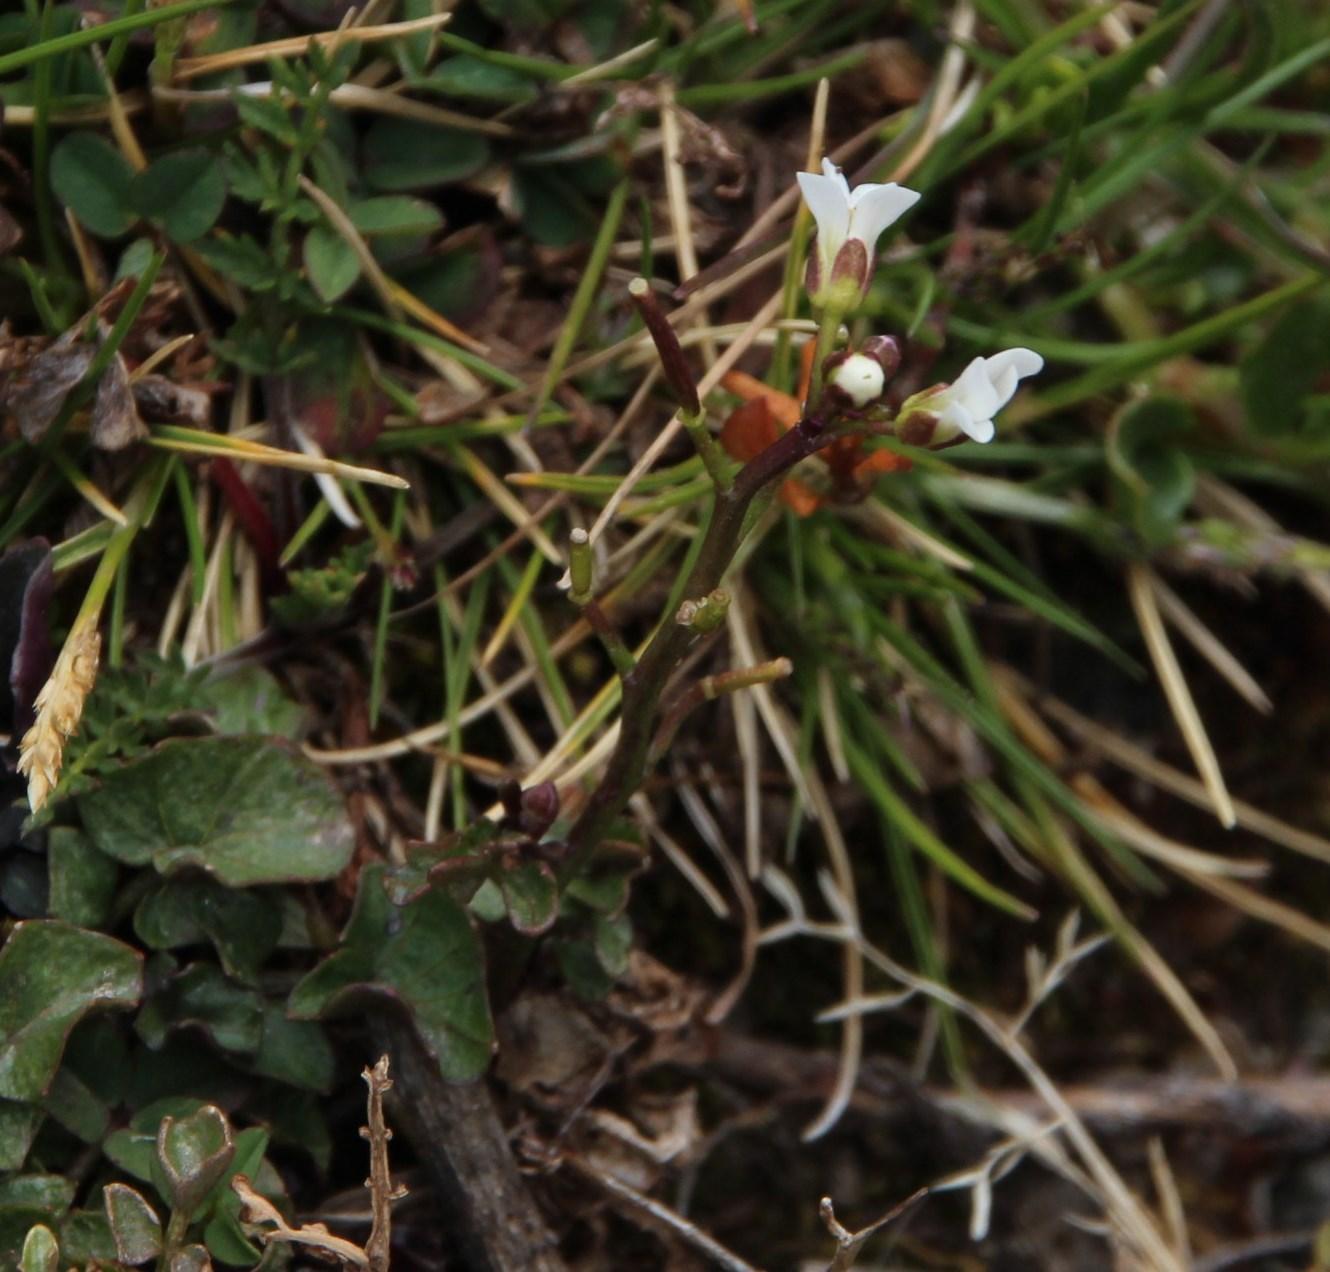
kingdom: Plantae
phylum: Tracheophyta
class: Magnoliopsida
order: Brassicales
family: Brassicaceae
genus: Nasturtium
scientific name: Nasturtium officinale
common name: Watercress
